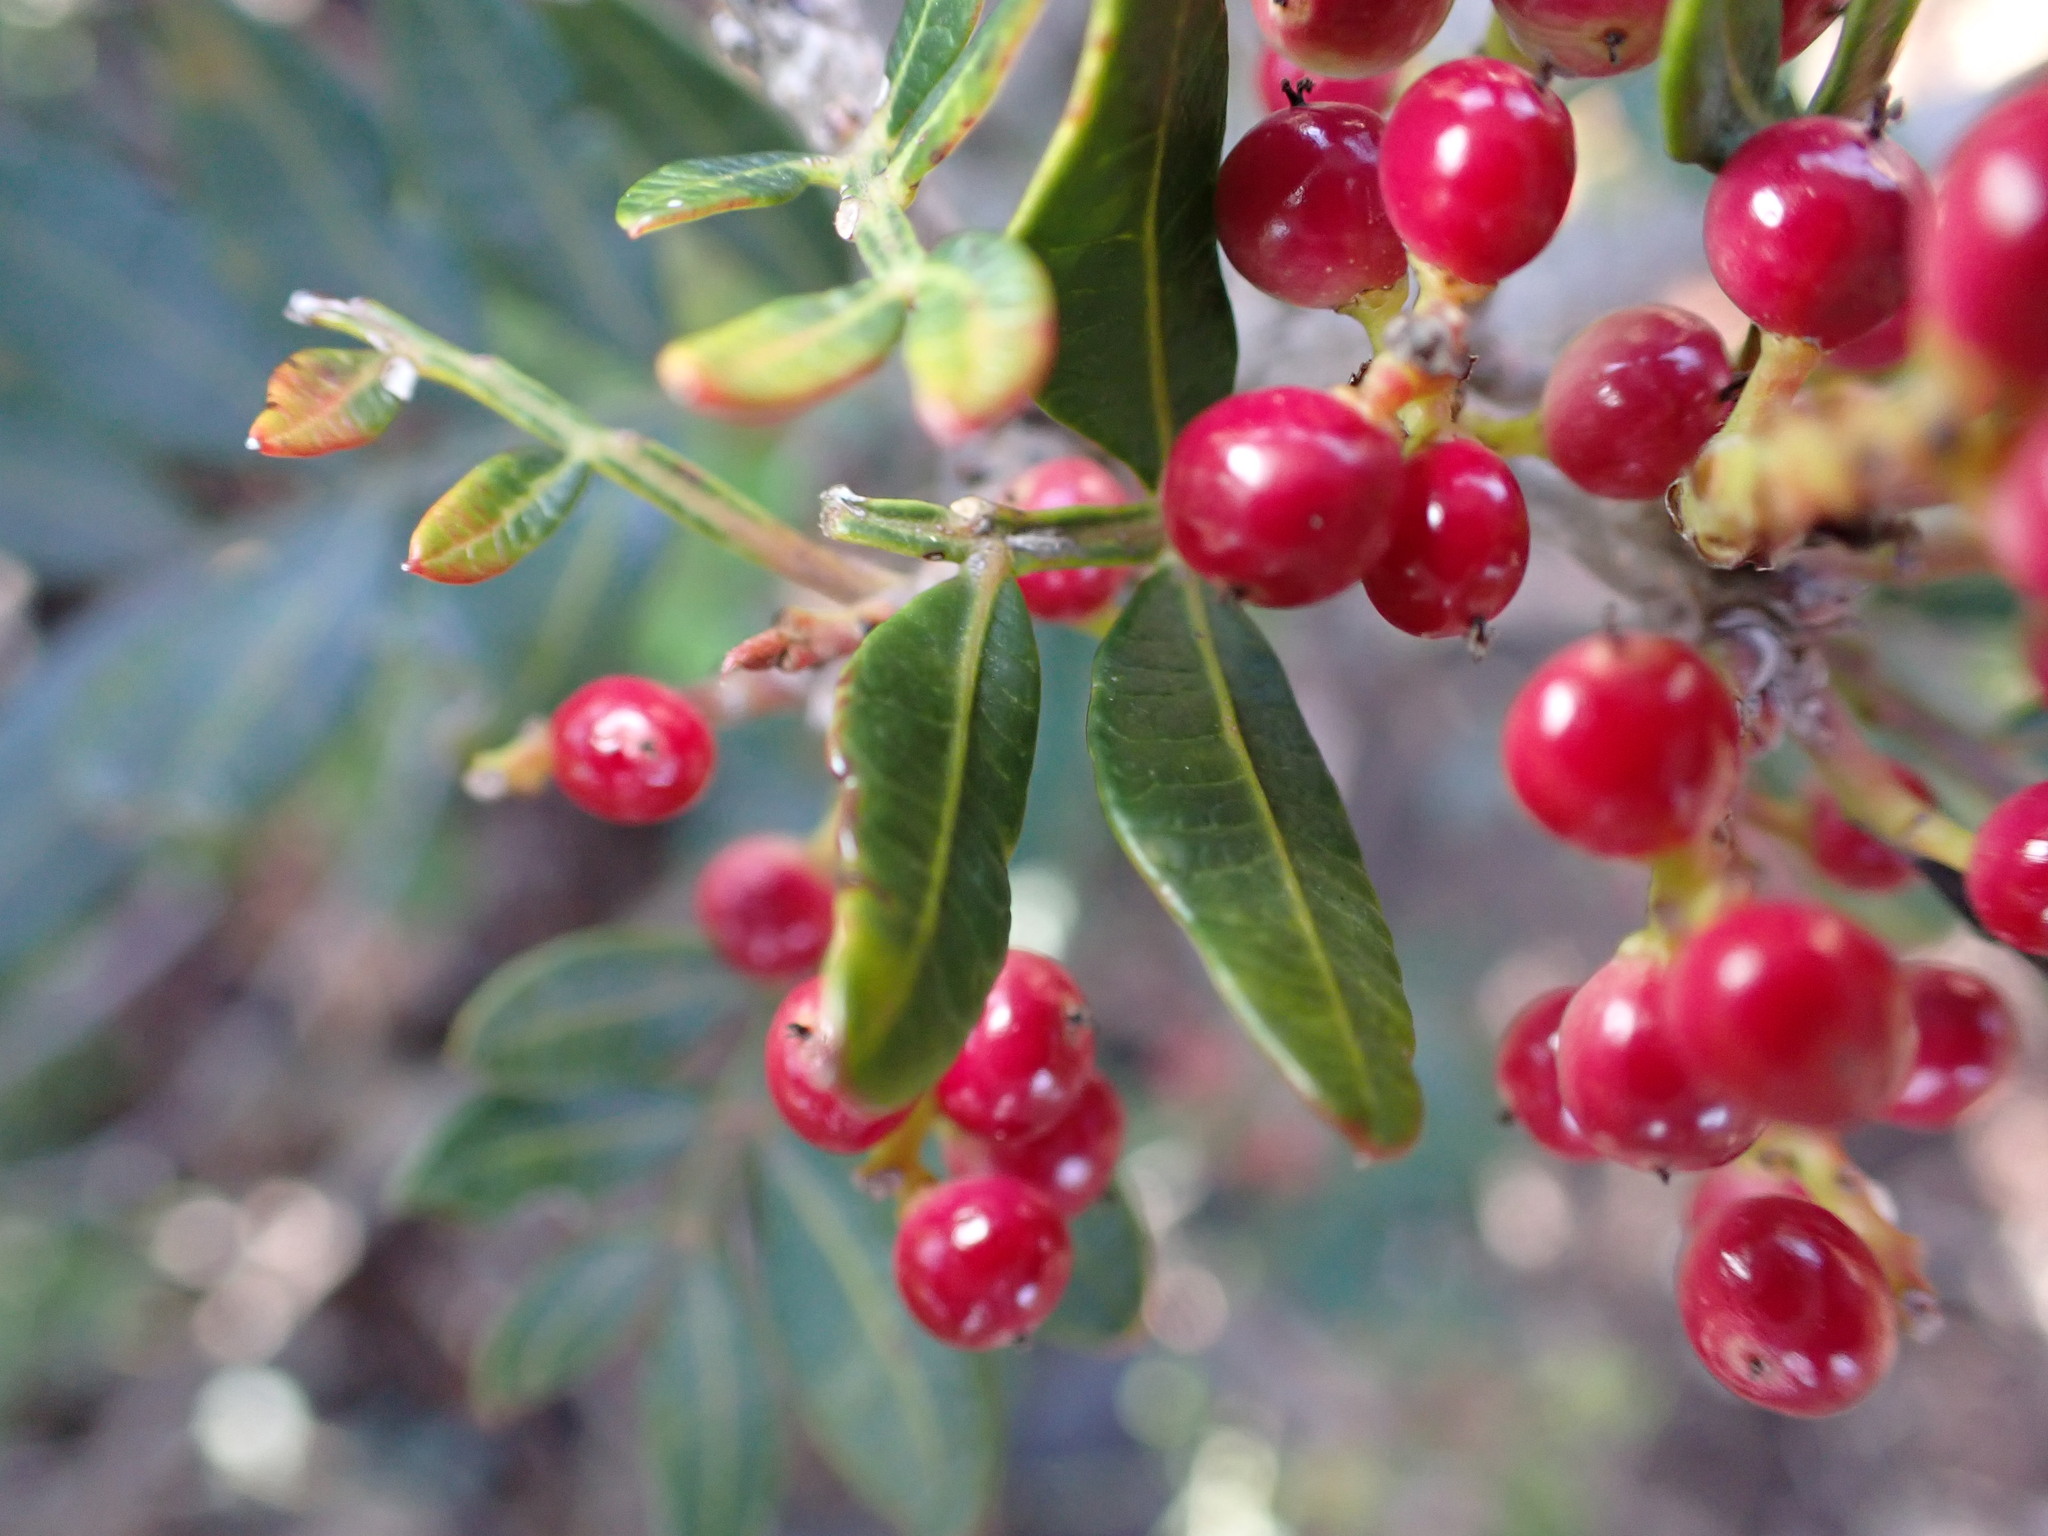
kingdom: Plantae
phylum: Tracheophyta
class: Magnoliopsida
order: Sapindales
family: Anacardiaceae
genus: Pistacia
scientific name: Pistacia lentiscus
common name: Lentisk
